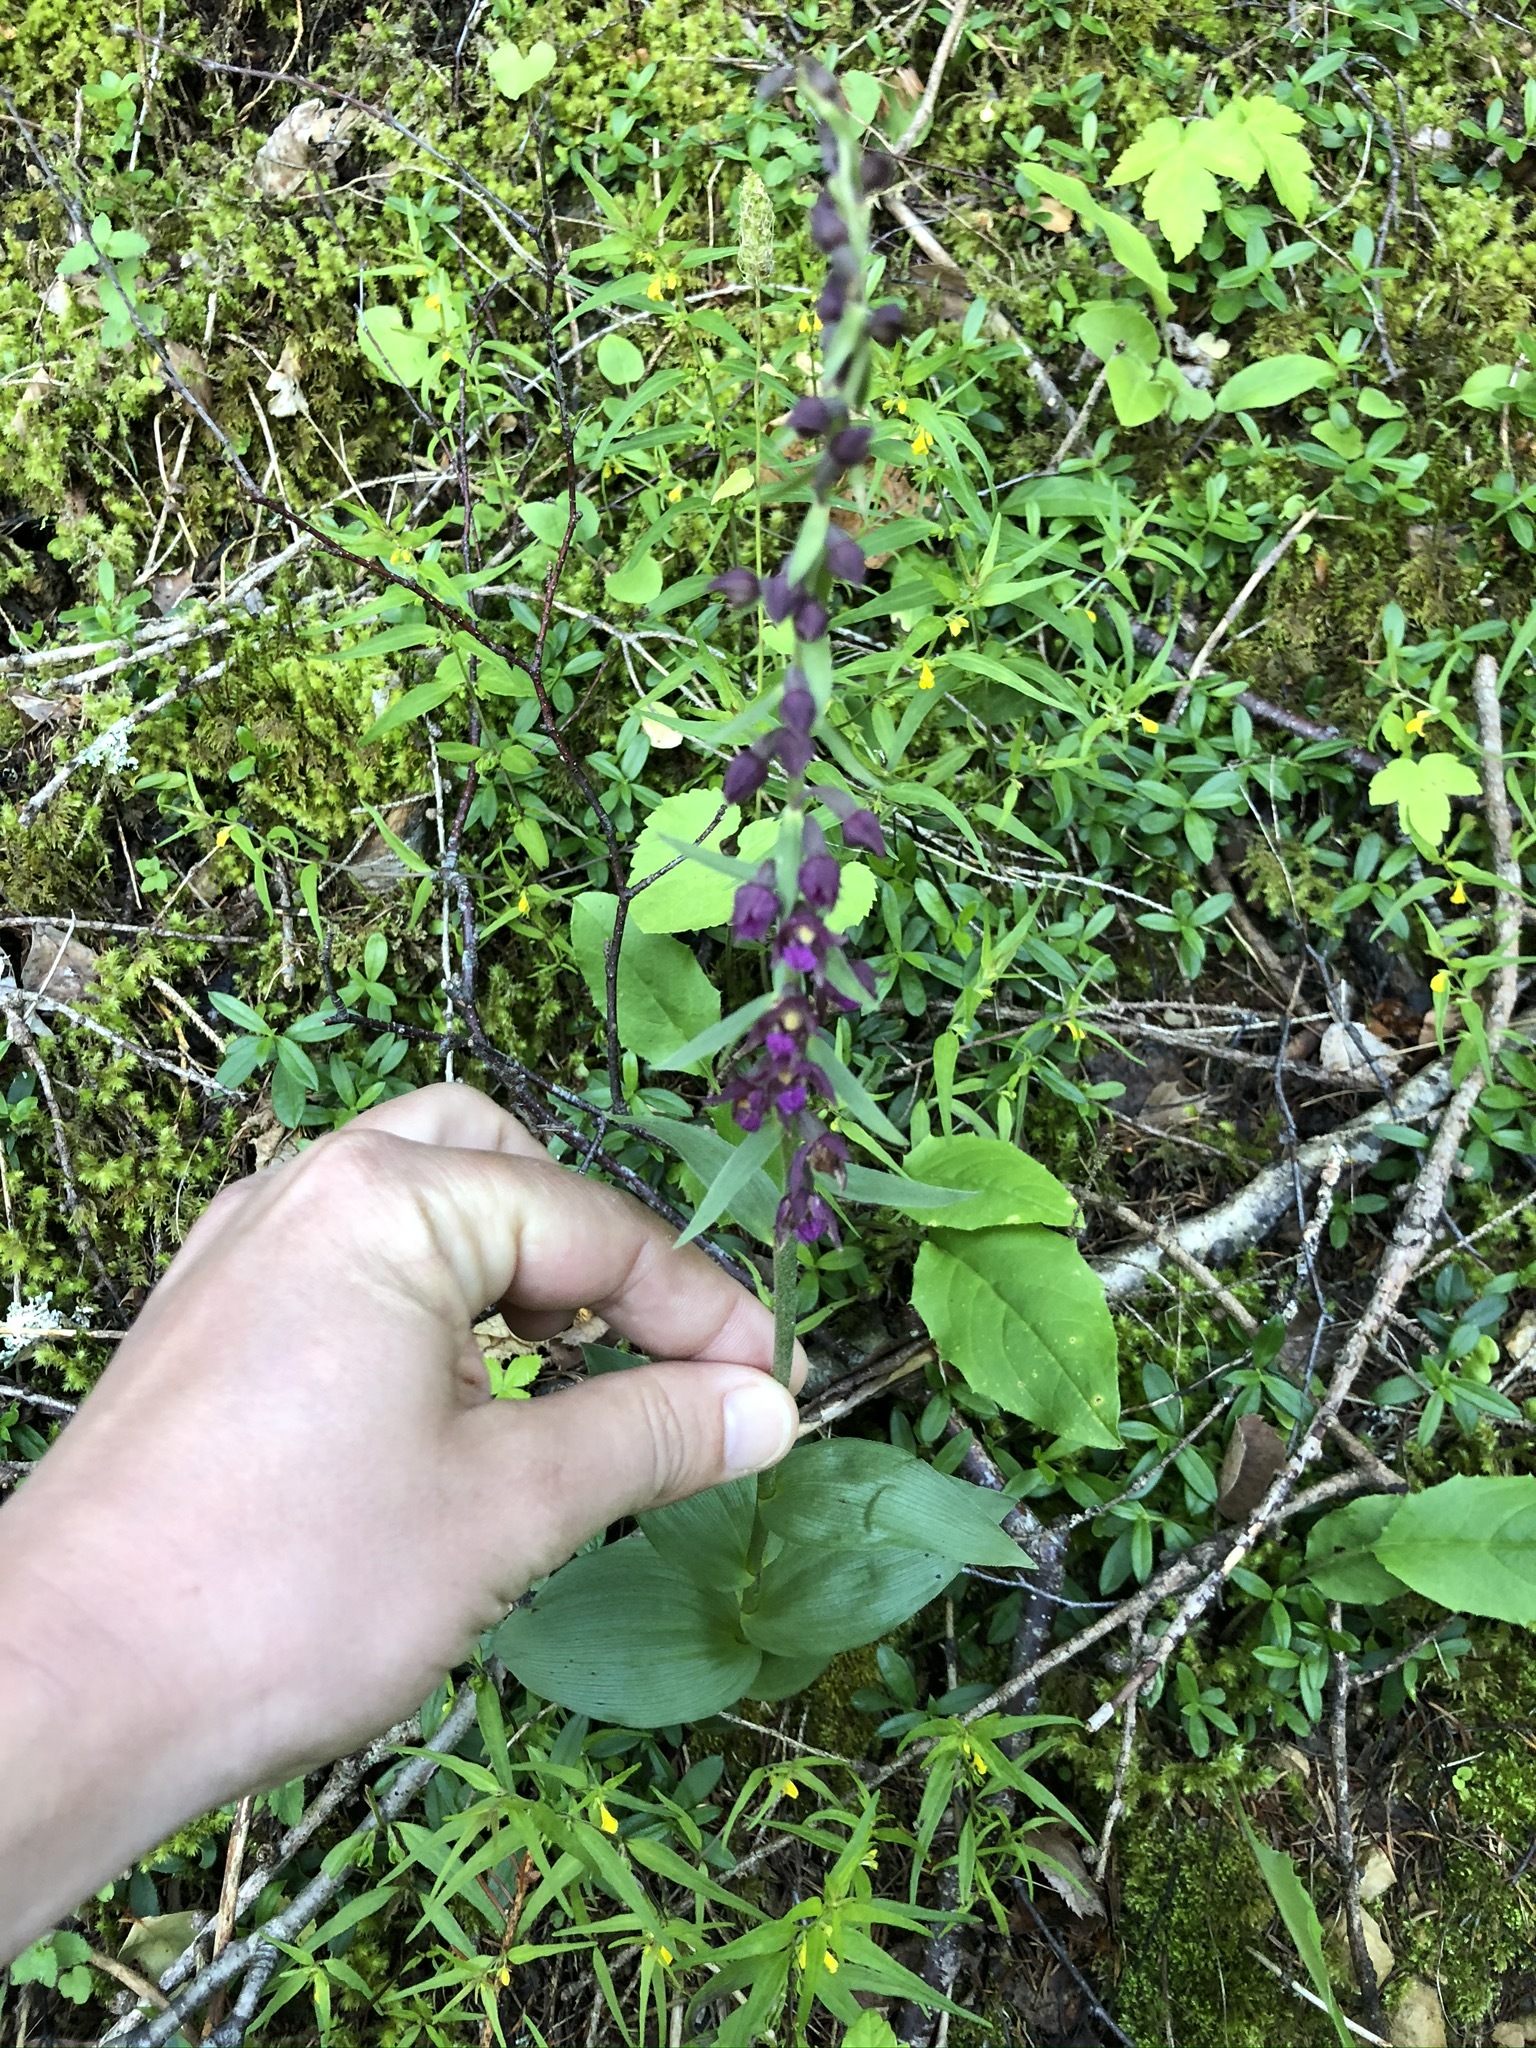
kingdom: Plantae
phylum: Tracheophyta
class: Liliopsida
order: Asparagales
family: Orchidaceae
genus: Epipactis
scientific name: Epipactis atrorubens
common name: Dark-red helleborine
